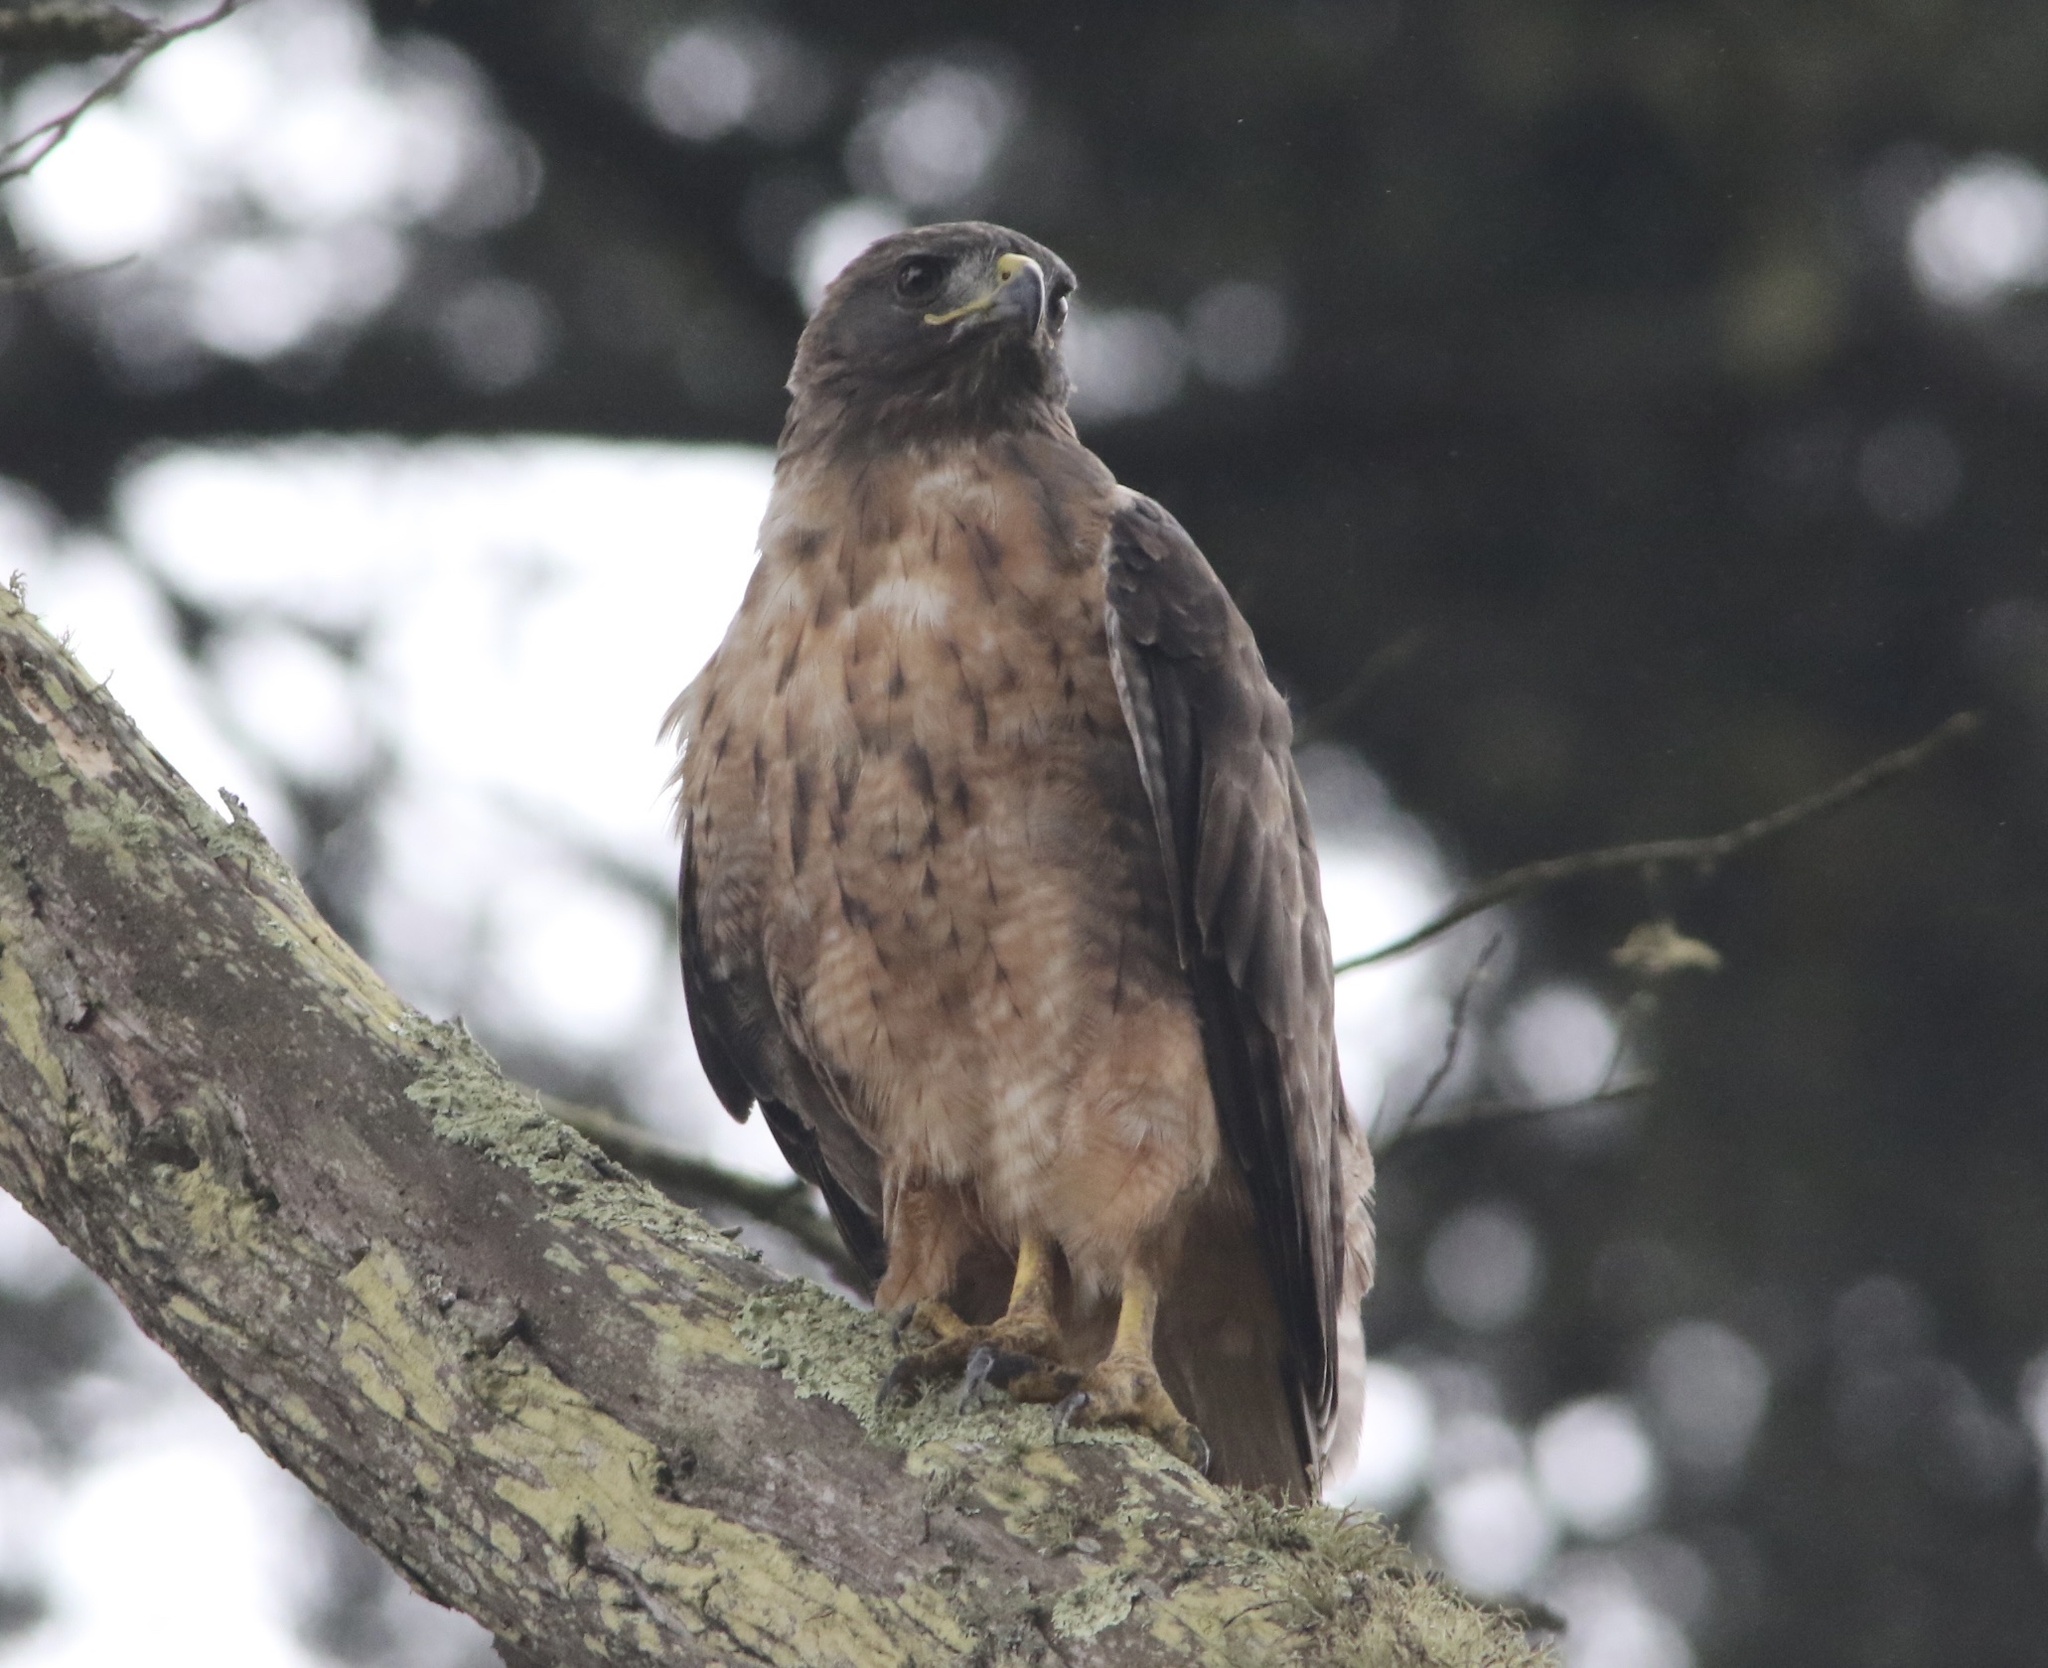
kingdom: Animalia
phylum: Chordata
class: Aves
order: Accipitriformes
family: Accipitridae
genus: Buteo
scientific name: Buteo jamaicensis
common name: Red-tailed hawk
